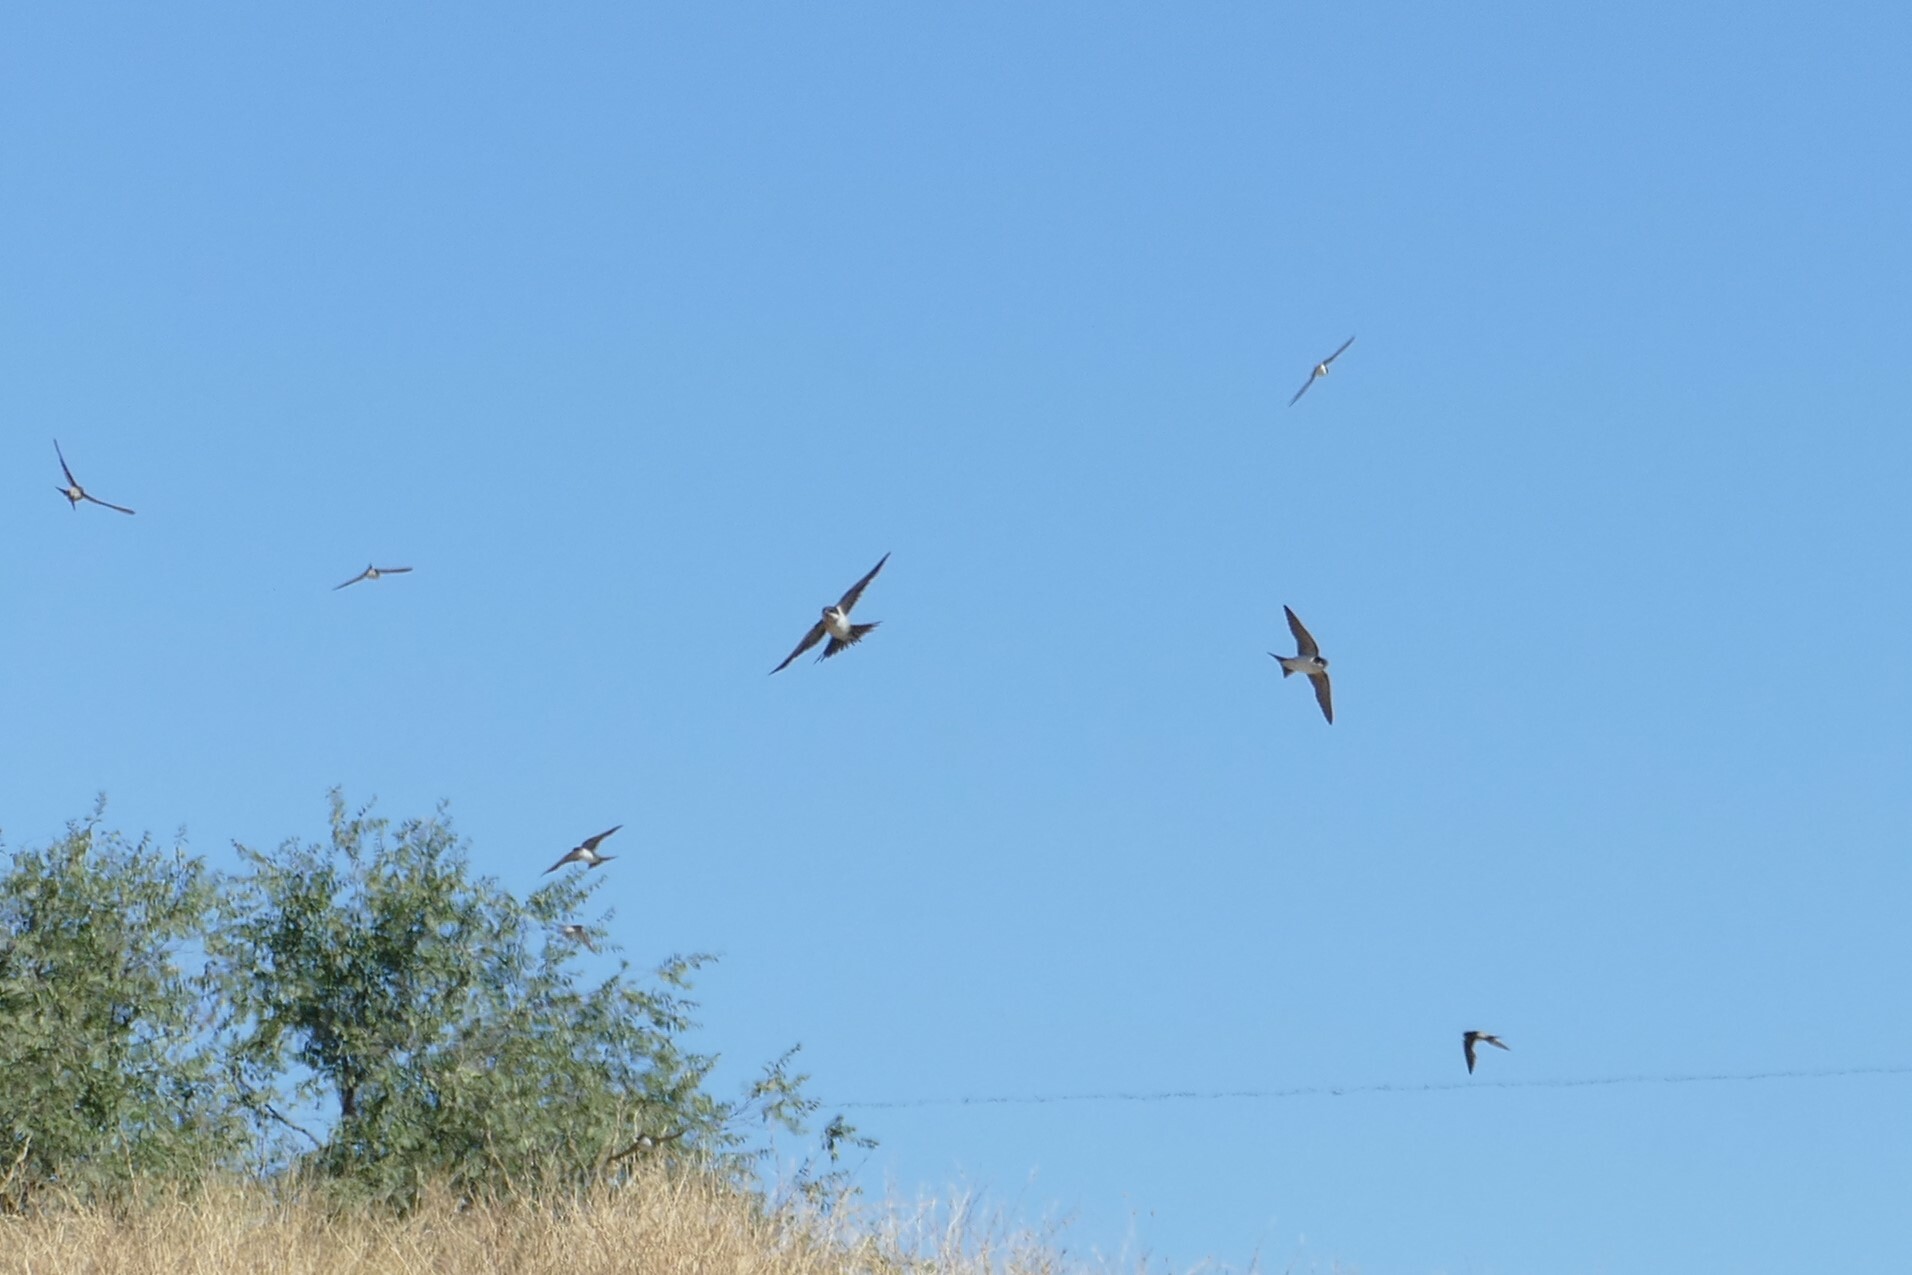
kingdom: Animalia
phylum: Chordata
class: Aves
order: Passeriformes
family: Hirundinidae
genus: Delichon
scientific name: Delichon urbicum
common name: Common house martin
